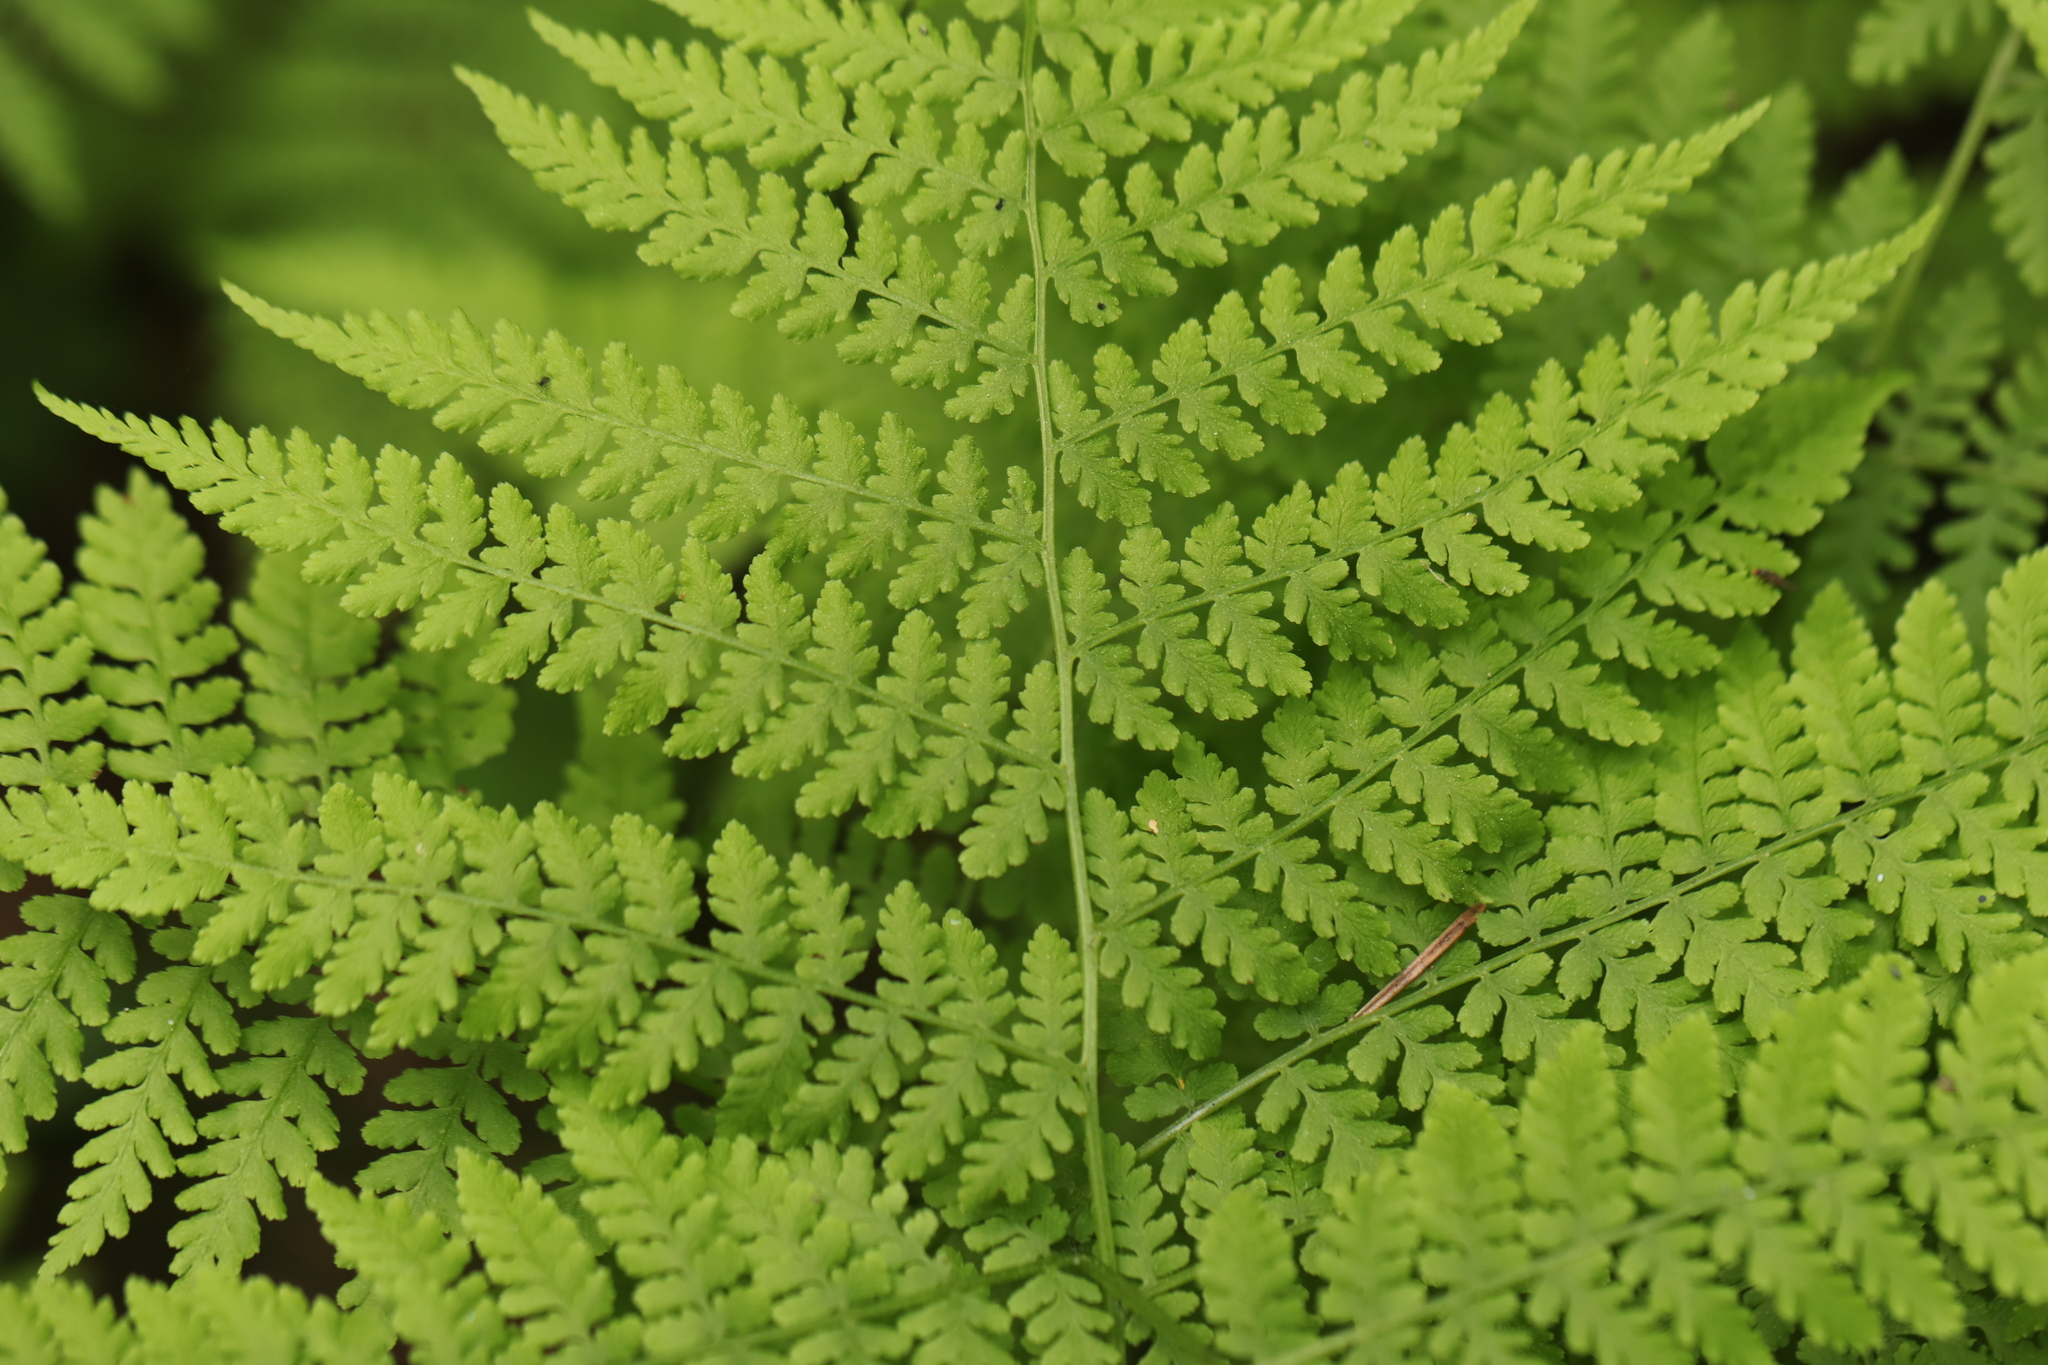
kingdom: Plantae
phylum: Tracheophyta
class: Polypodiopsida
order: Polypodiales
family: Dryopteridaceae
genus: Dryopteris
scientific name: Dryopteris expansa
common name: Northern buckler fern
